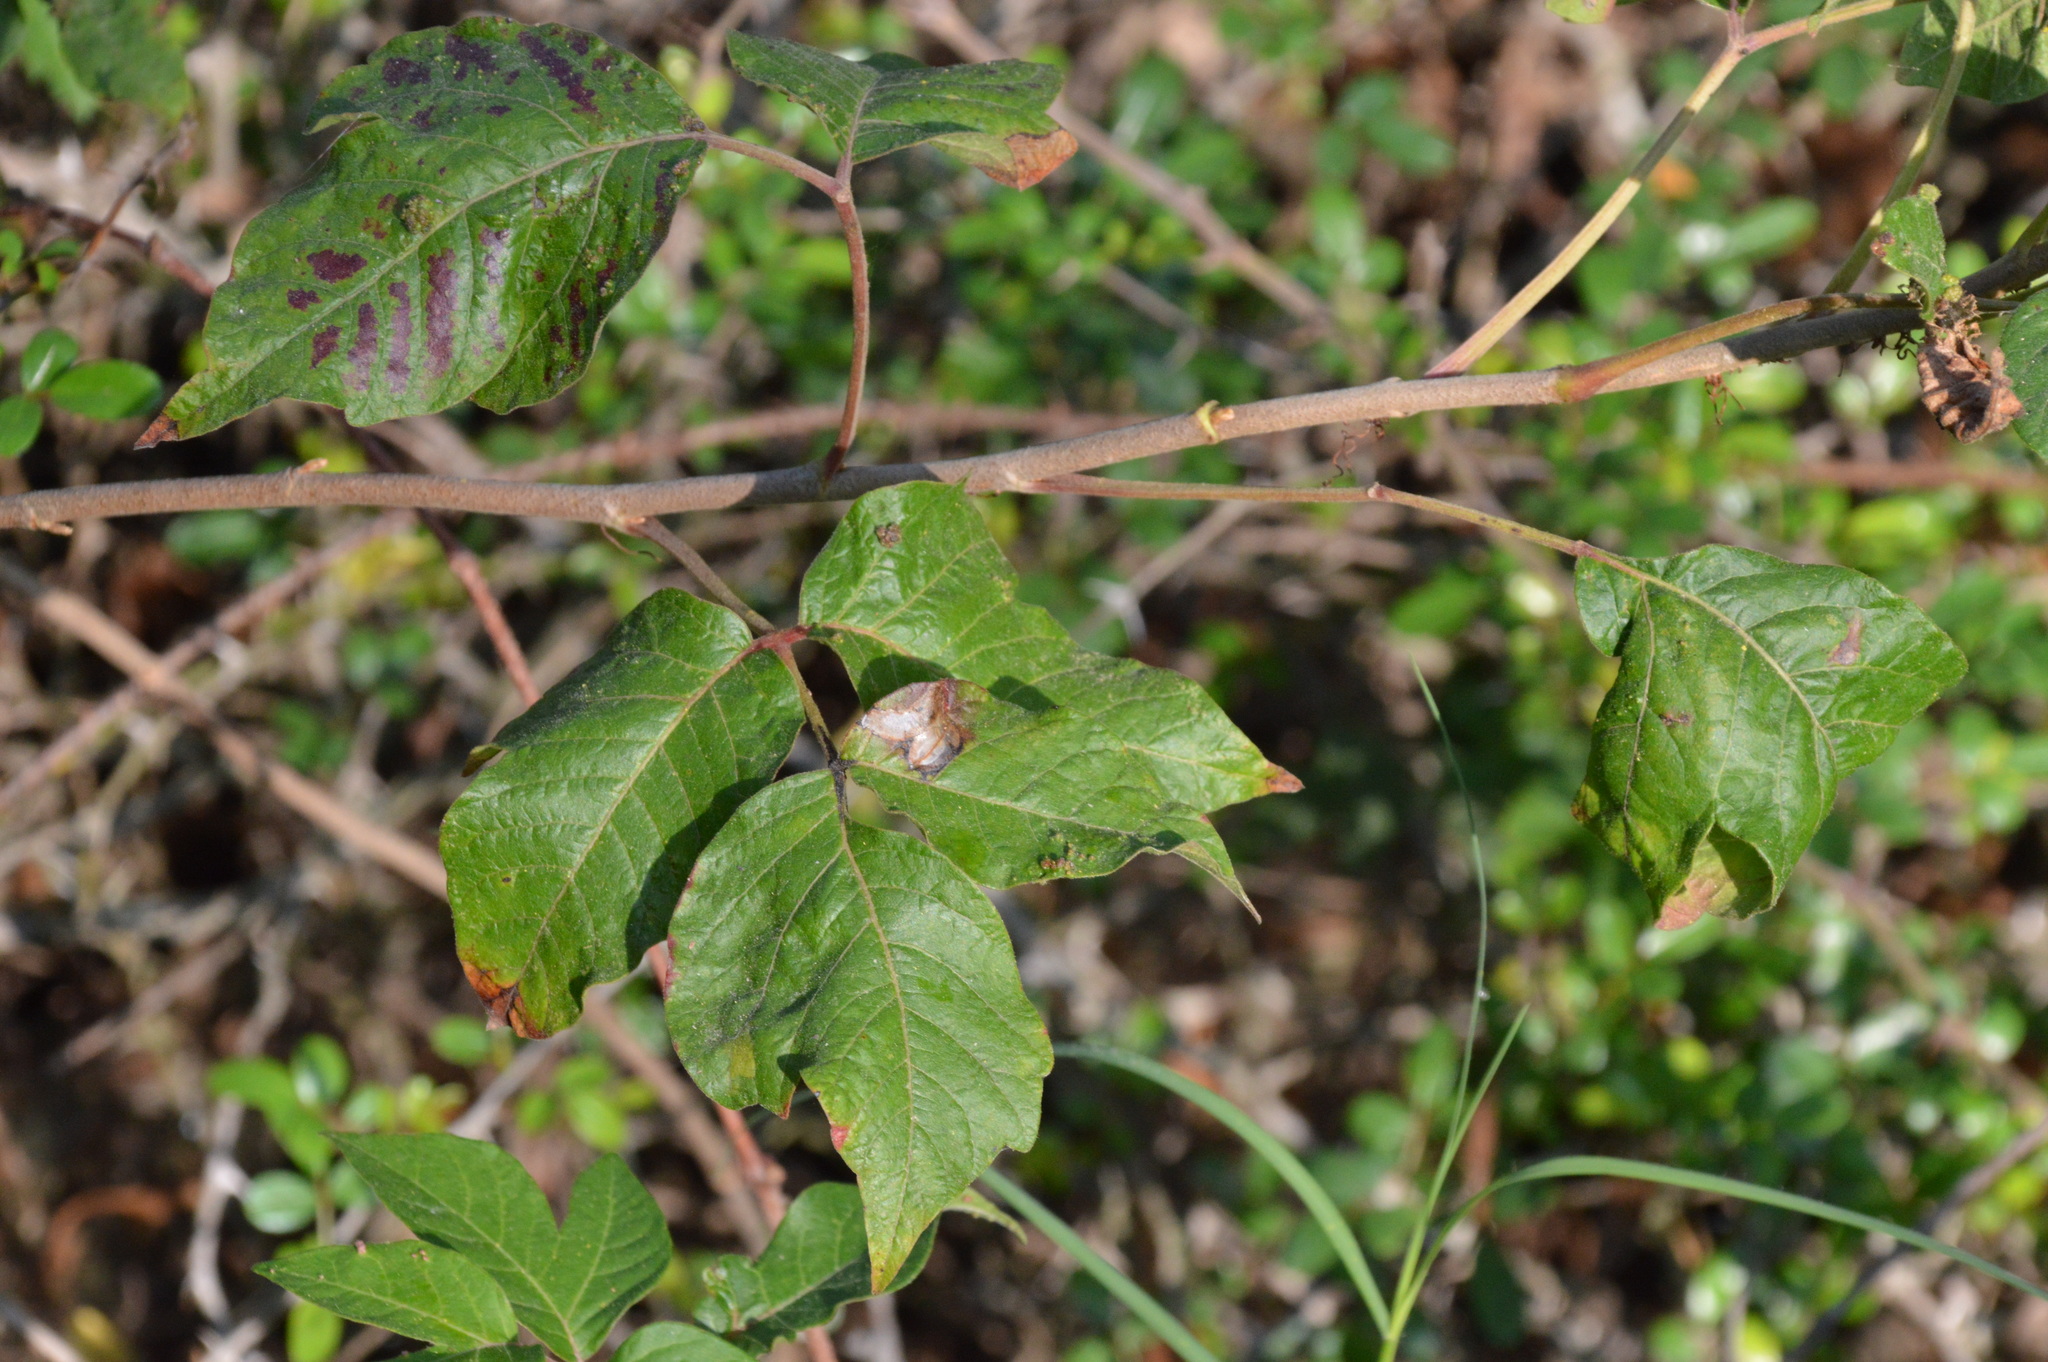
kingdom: Plantae
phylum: Tracheophyta
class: Magnoliopsida
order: Sapindales
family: Anacardiaceae
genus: Toxicodendron
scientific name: Toxicodendron radicans
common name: Poison ivy
